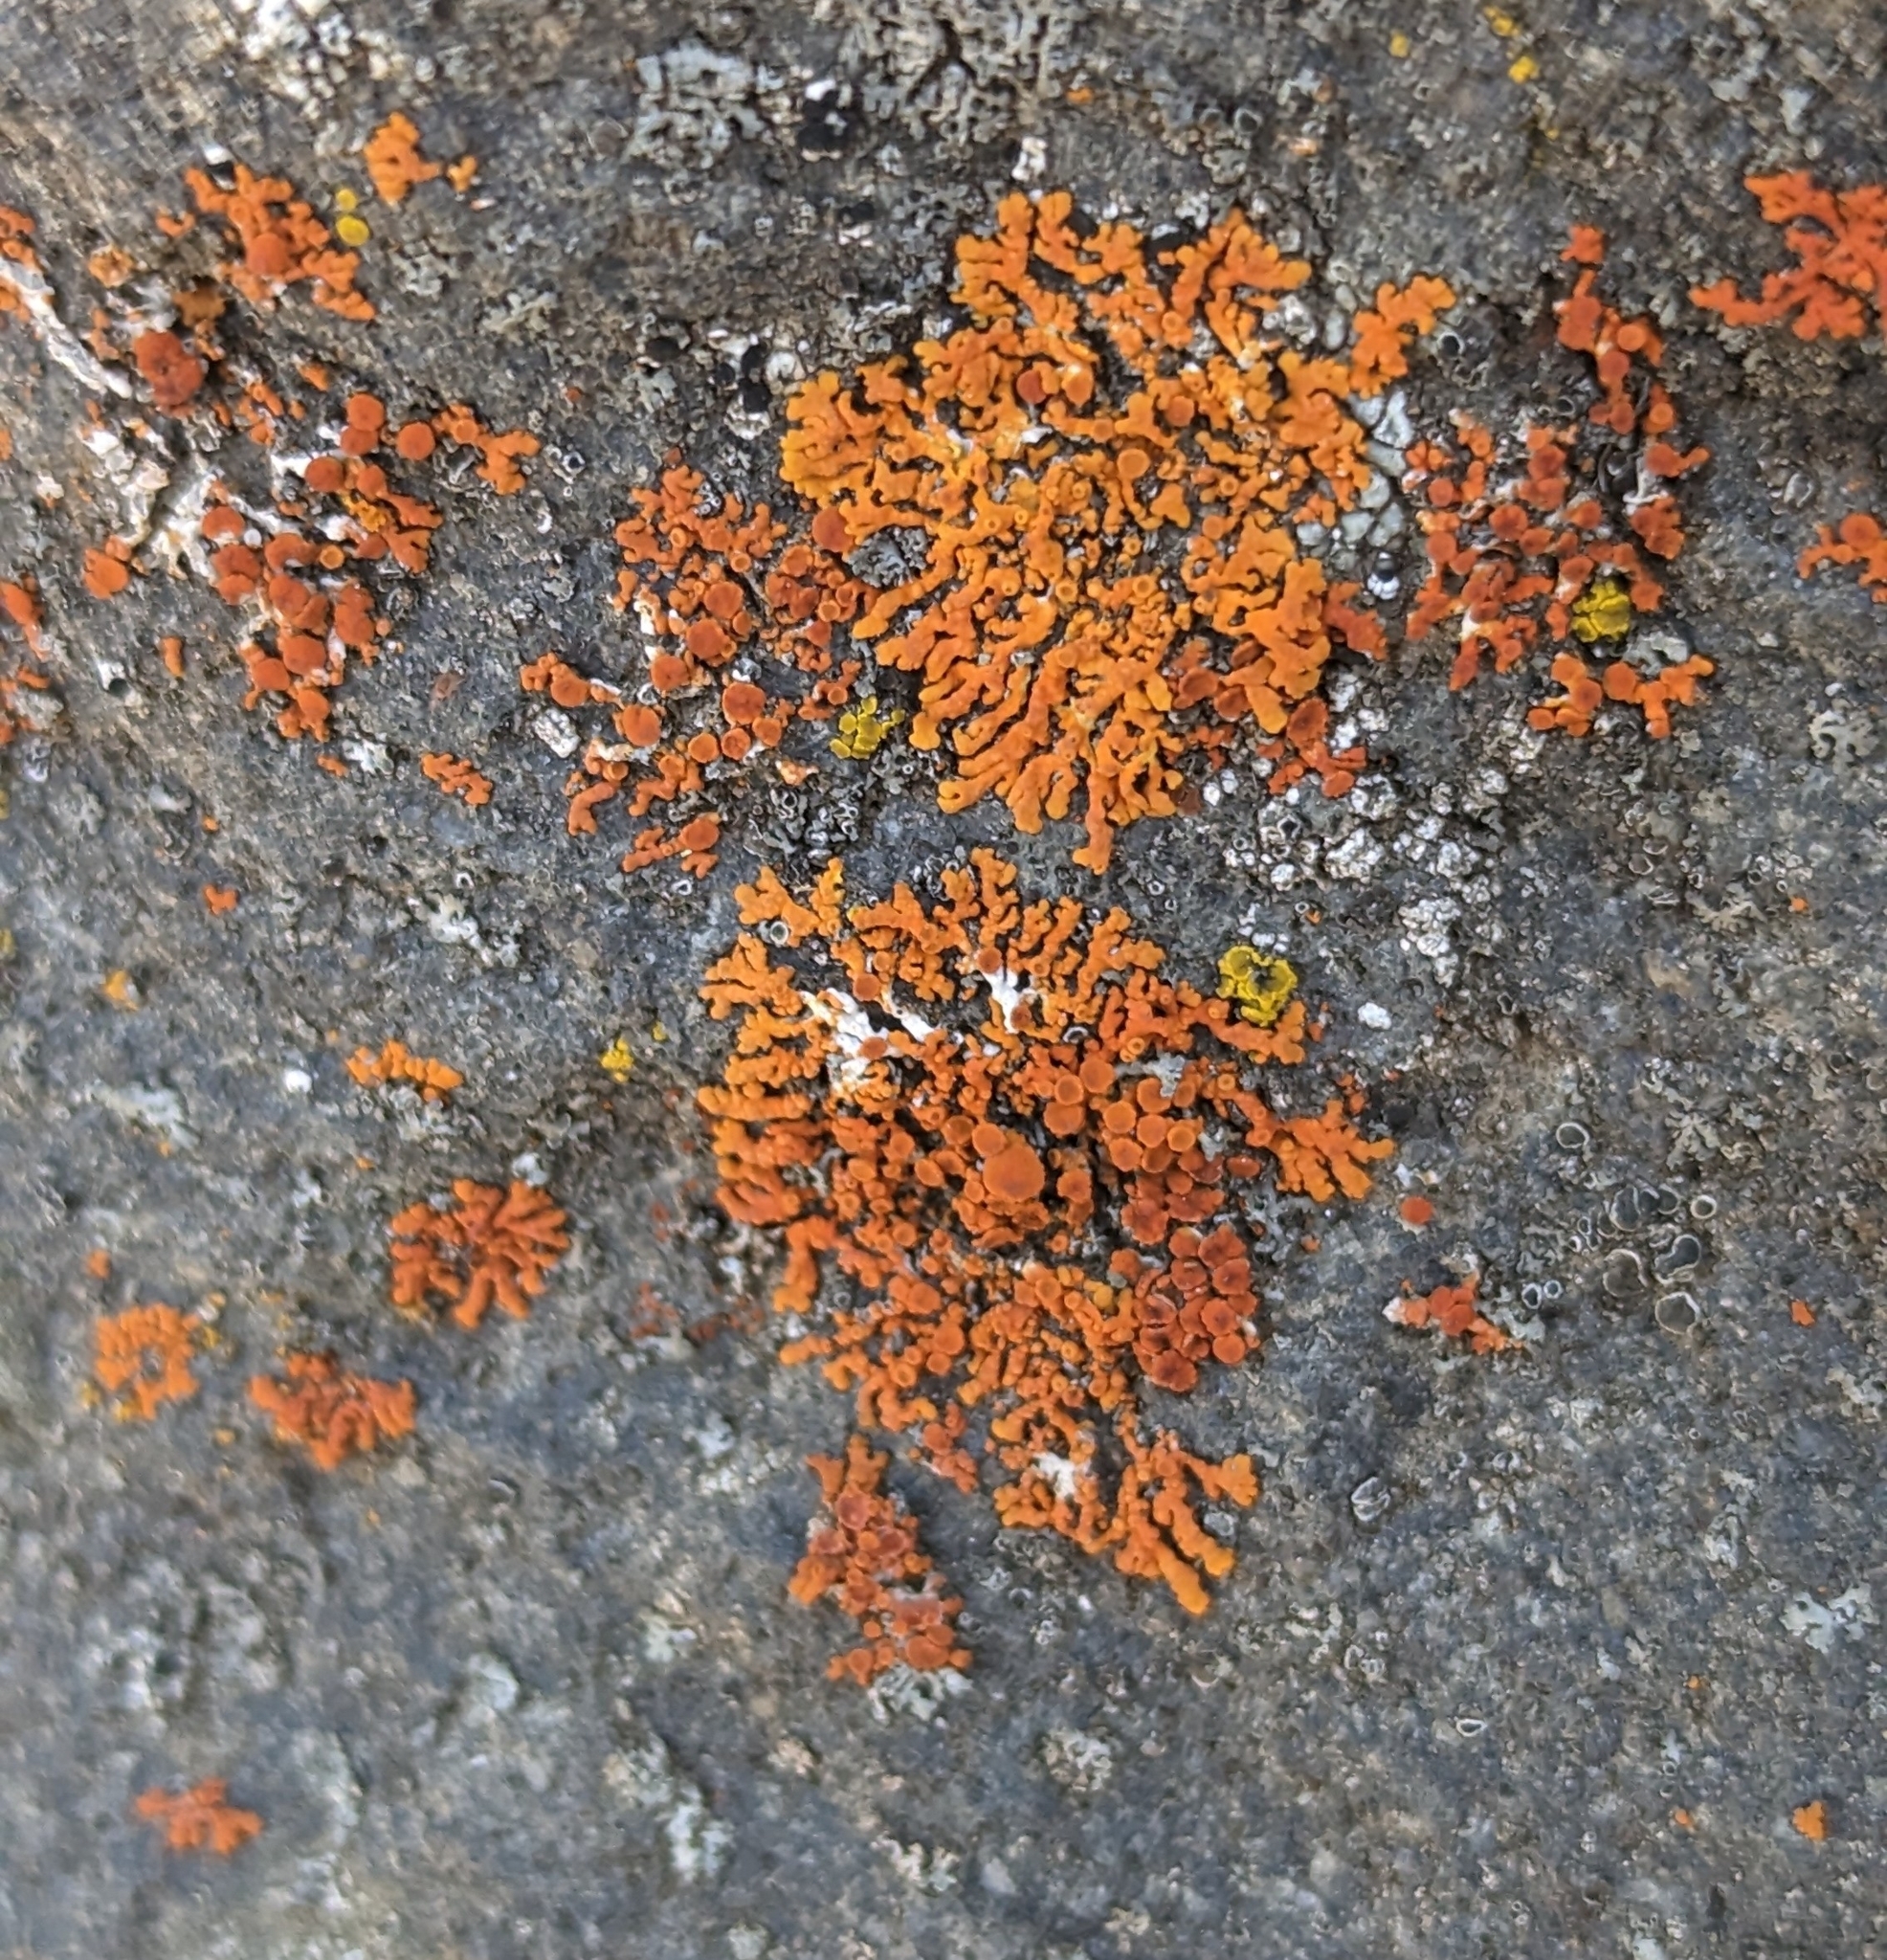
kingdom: Fungi
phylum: Ascomycota
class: Lecanoromycetes
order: Teloschistales
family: Teloschistaceae
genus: Xanthoria
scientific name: Xanthoria elegans
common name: Elegant sunburst lichen
